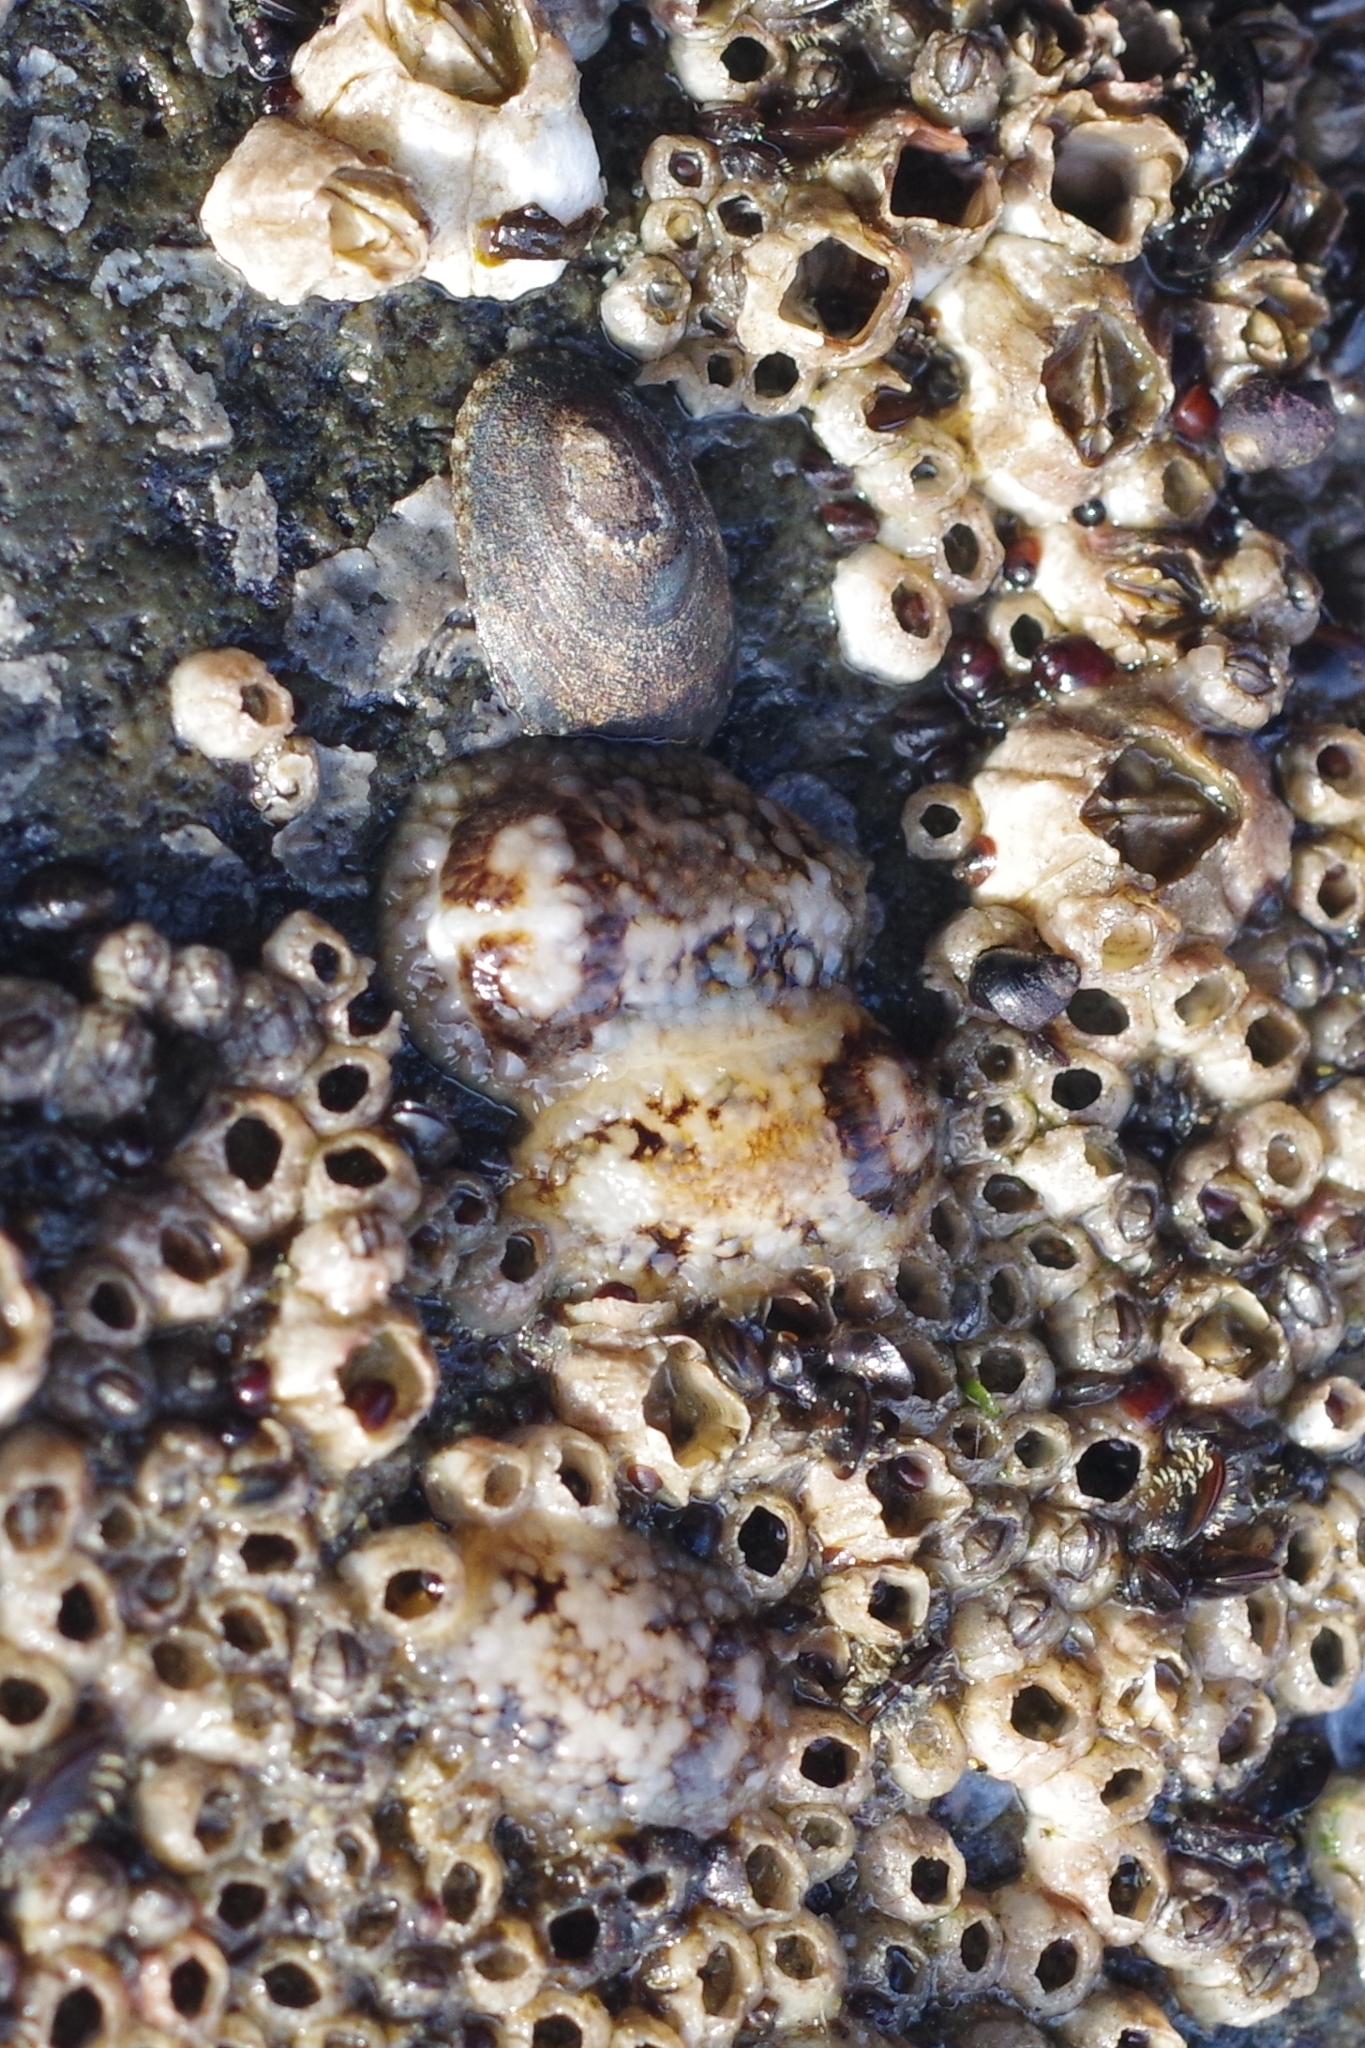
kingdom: Animalia
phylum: Mollusca
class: Gastropoda
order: Nudibranchia
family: Onchidorididae
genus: Onchidoris
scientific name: Onchidoris bilamellata
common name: Barnacle-eating onchidoris
